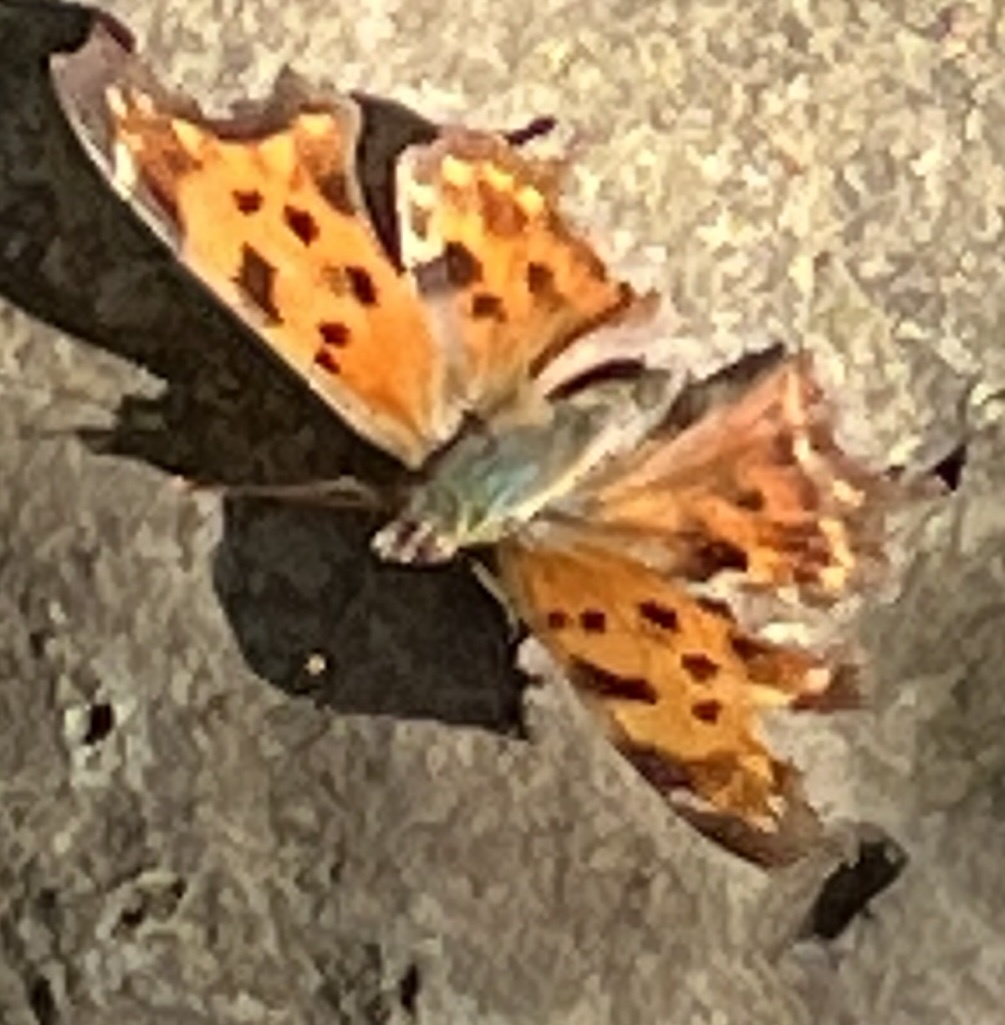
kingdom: Animalia
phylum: Arthropoda
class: Insecta
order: Lepidoptera
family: Nymphalidae
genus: Polygonia
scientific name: Polygonia comma
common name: Eastern comma
